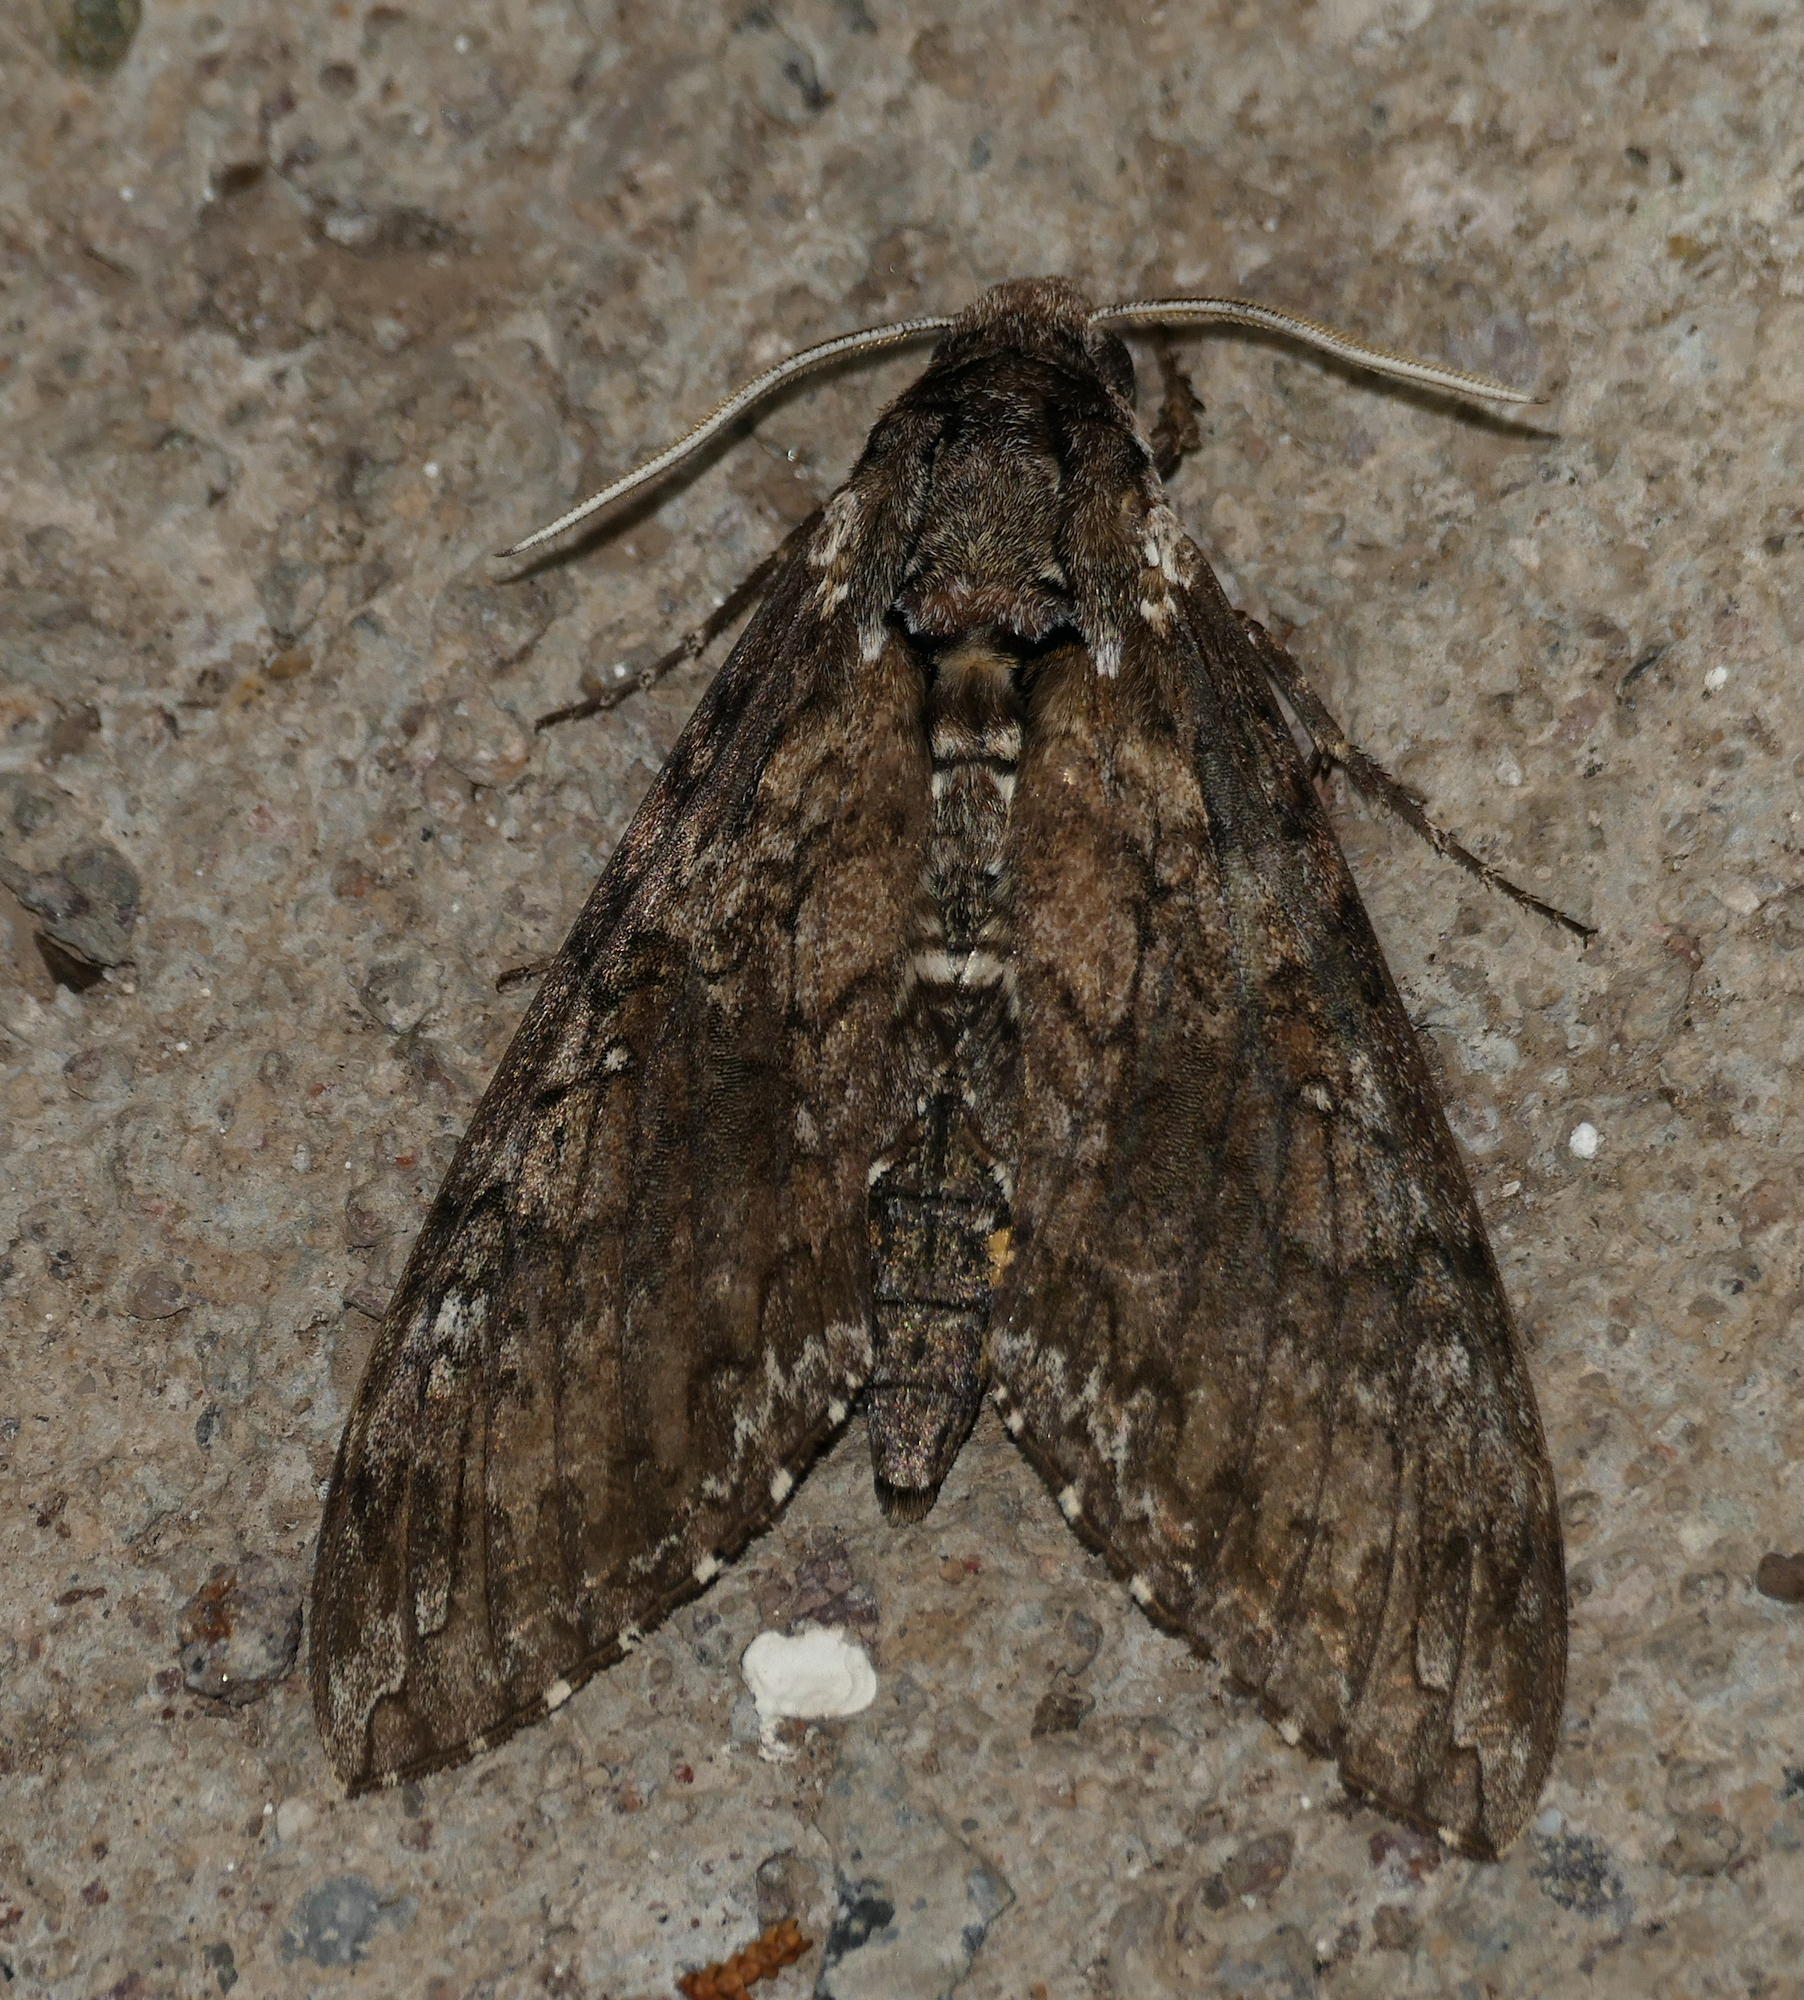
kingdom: Animalia
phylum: Arthropoda
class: Insecta
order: Lepidoptera
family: Sphingidae
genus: Manduca
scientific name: Manduca sexta
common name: Carolina sphinx
